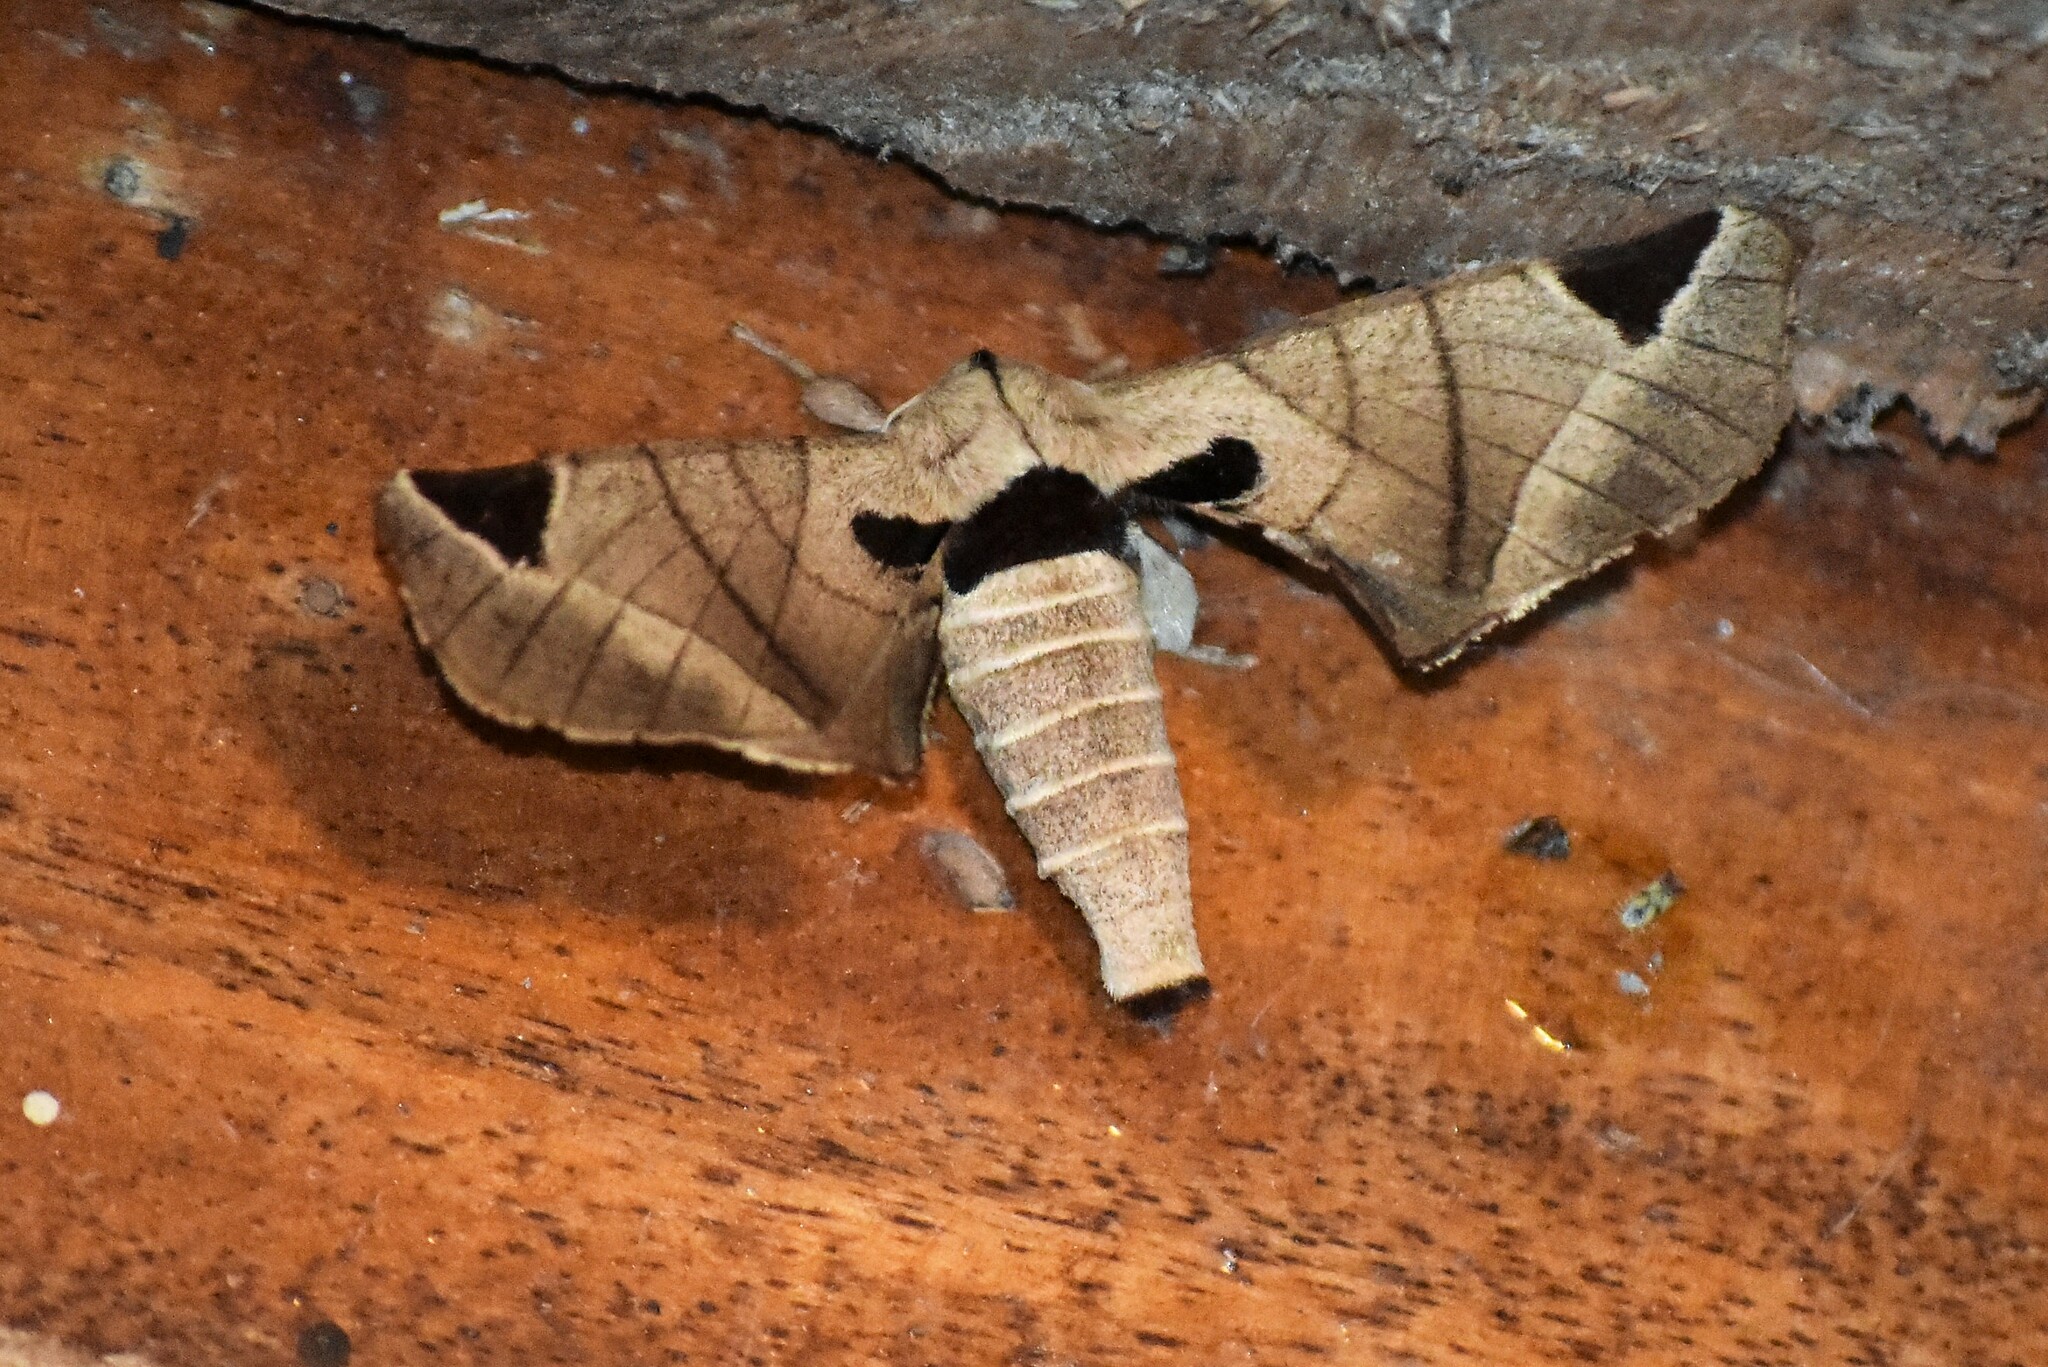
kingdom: Animalia
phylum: Arthropoda
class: Insecta
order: Lepidoptera
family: Apatelodidae
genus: Hygrochroa
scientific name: Hygrochroa Apatelodes pandarioides
